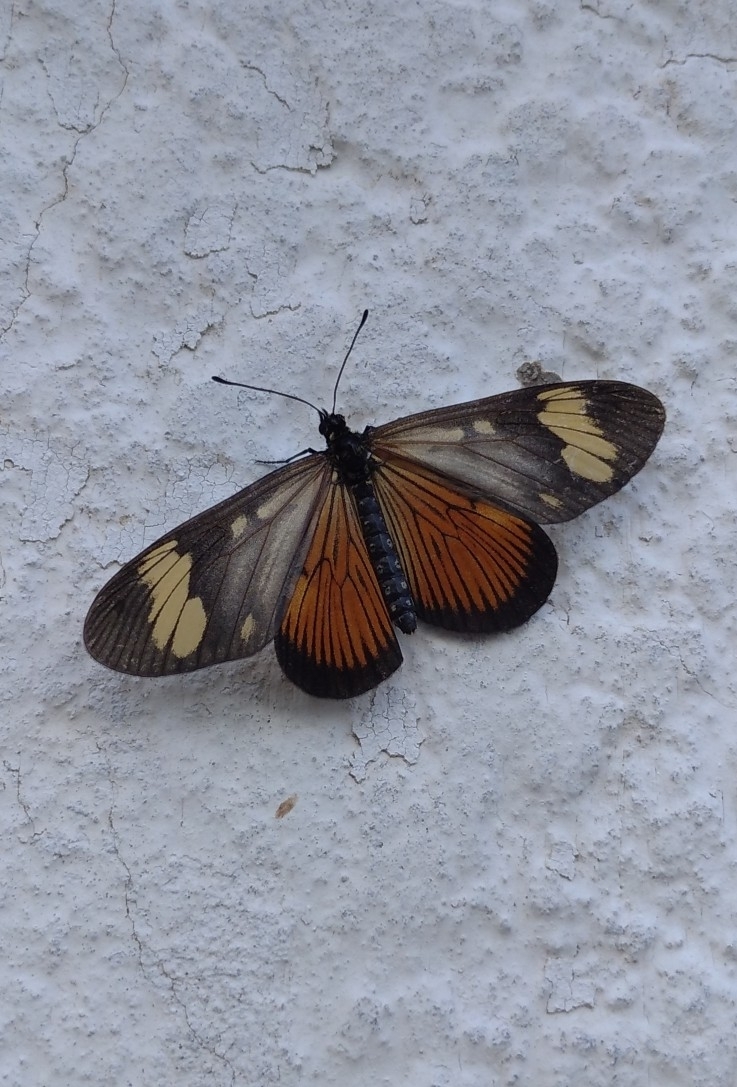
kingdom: Animalia
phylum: Arthropoda
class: Insecta
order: Lepidoptera
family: Nymphalidae
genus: Actinote
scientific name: Actinote pellenea
